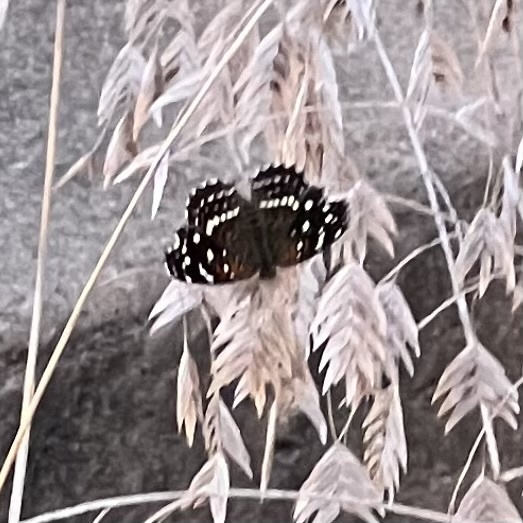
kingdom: Animalia
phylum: Arthropoda
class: Insecta
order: Lepidoptera
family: Nymphalidae
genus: Anthanassa
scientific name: Anthanassa texana
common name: Texan crescent
